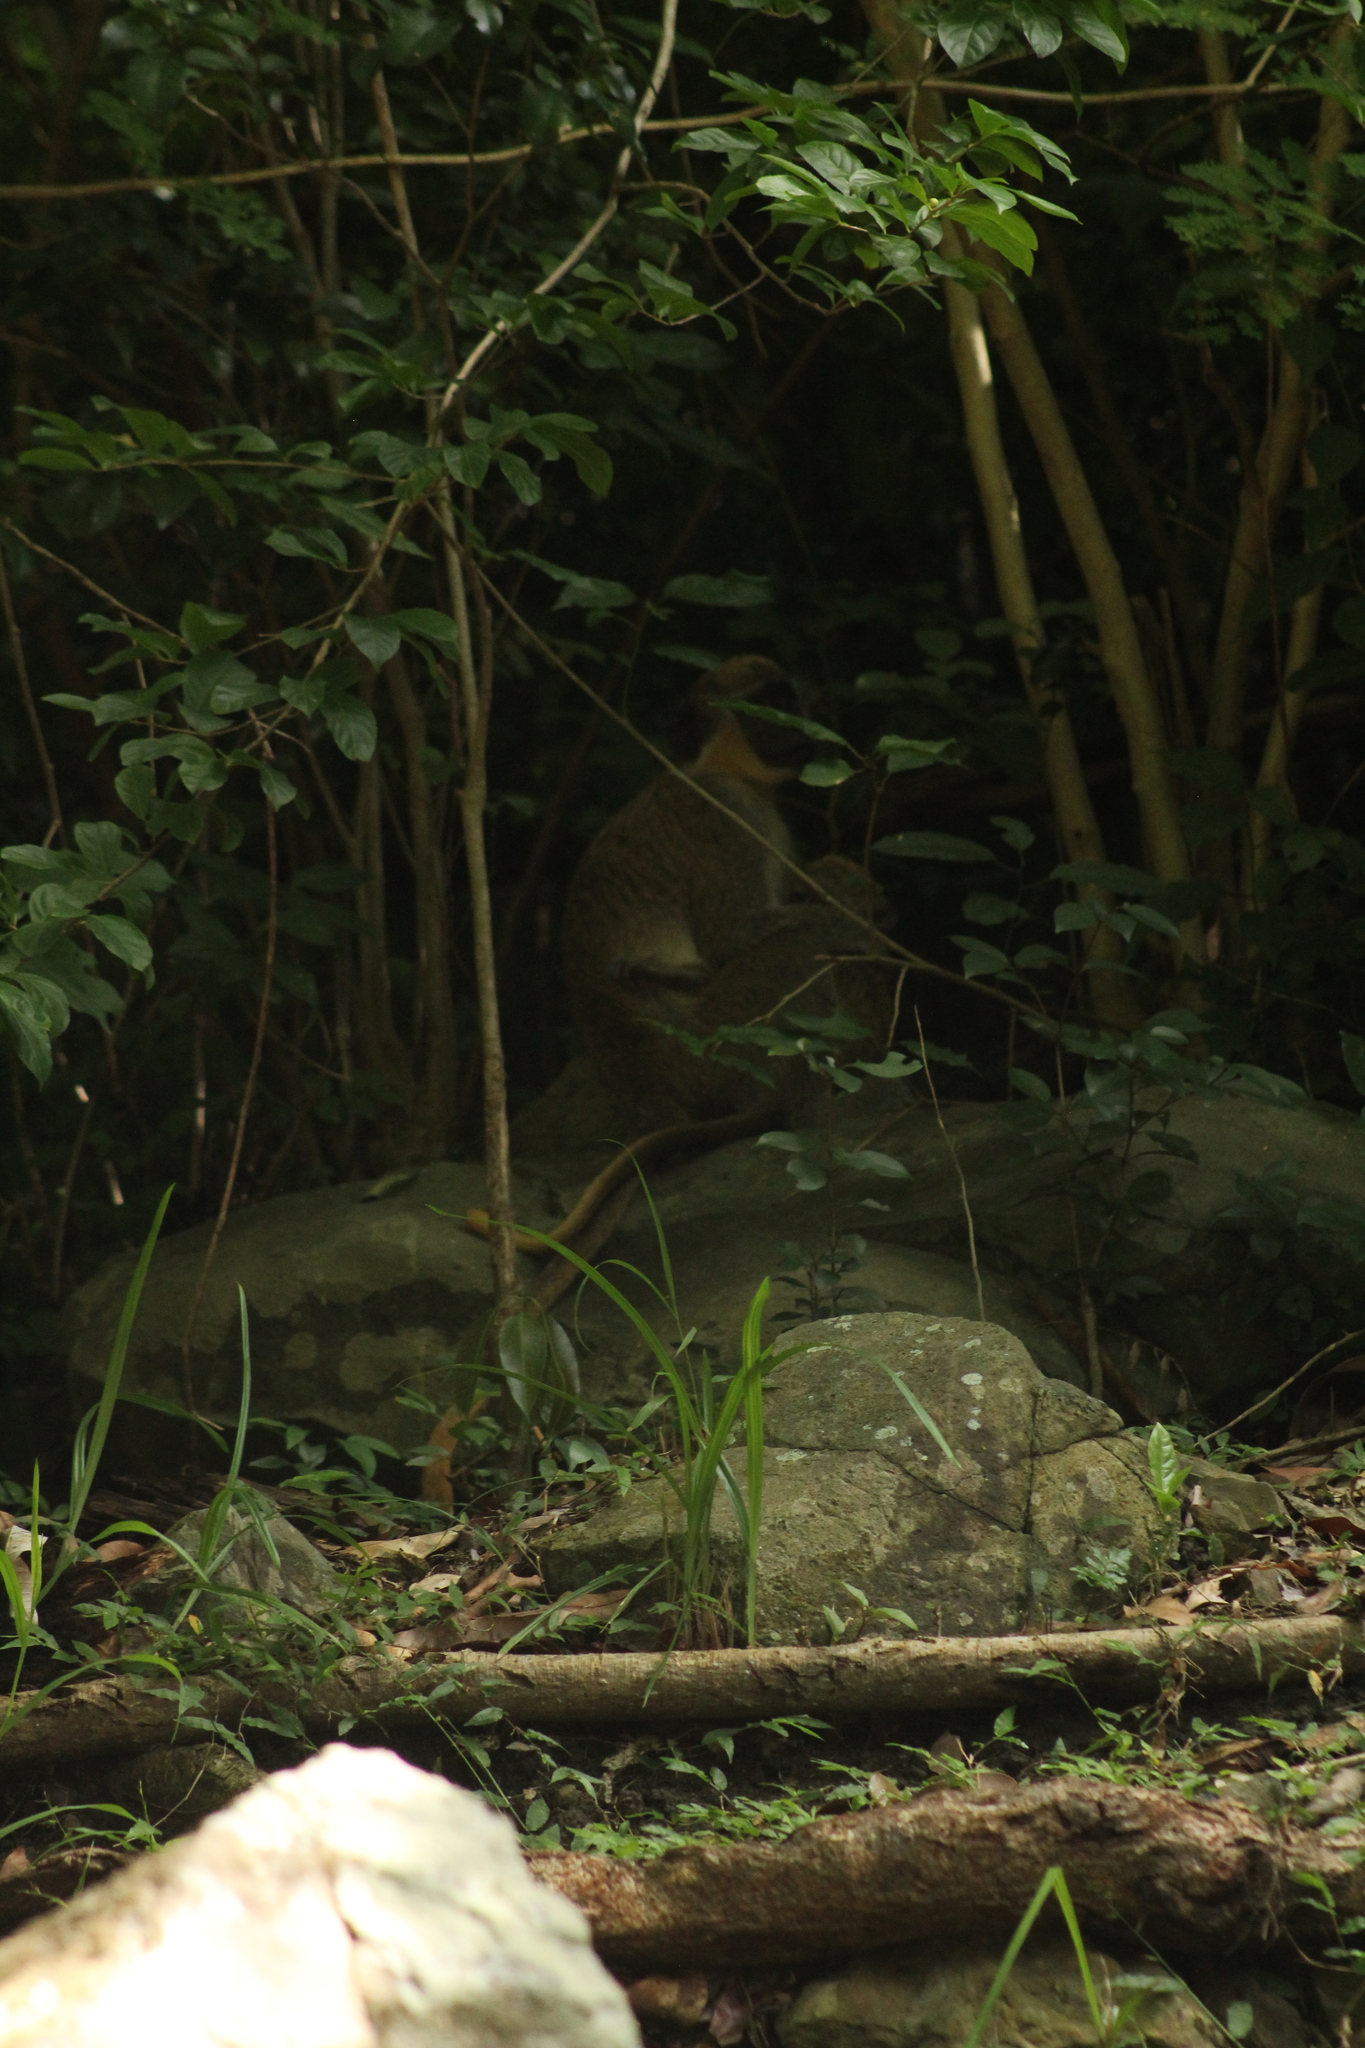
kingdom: Animalia
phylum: Chordata
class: Mammalia
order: Primates
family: Cercopithecidae
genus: Chlorocebus
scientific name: Chlorocebus sabaeus
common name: Green monkey
